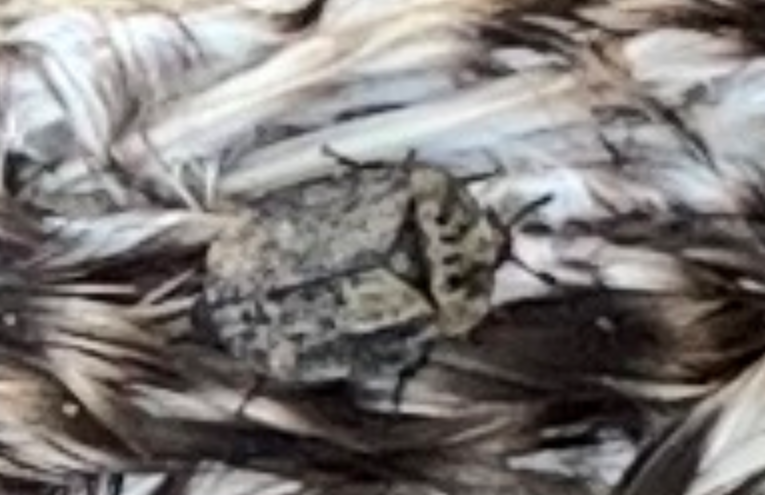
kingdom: Animalia
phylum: Arthropoda
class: Insecta
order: Coleoptera
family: Staphylinidae
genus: Oiceoptoma
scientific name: Oiceoptoma inaequale
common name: Ridged carrion beetle
